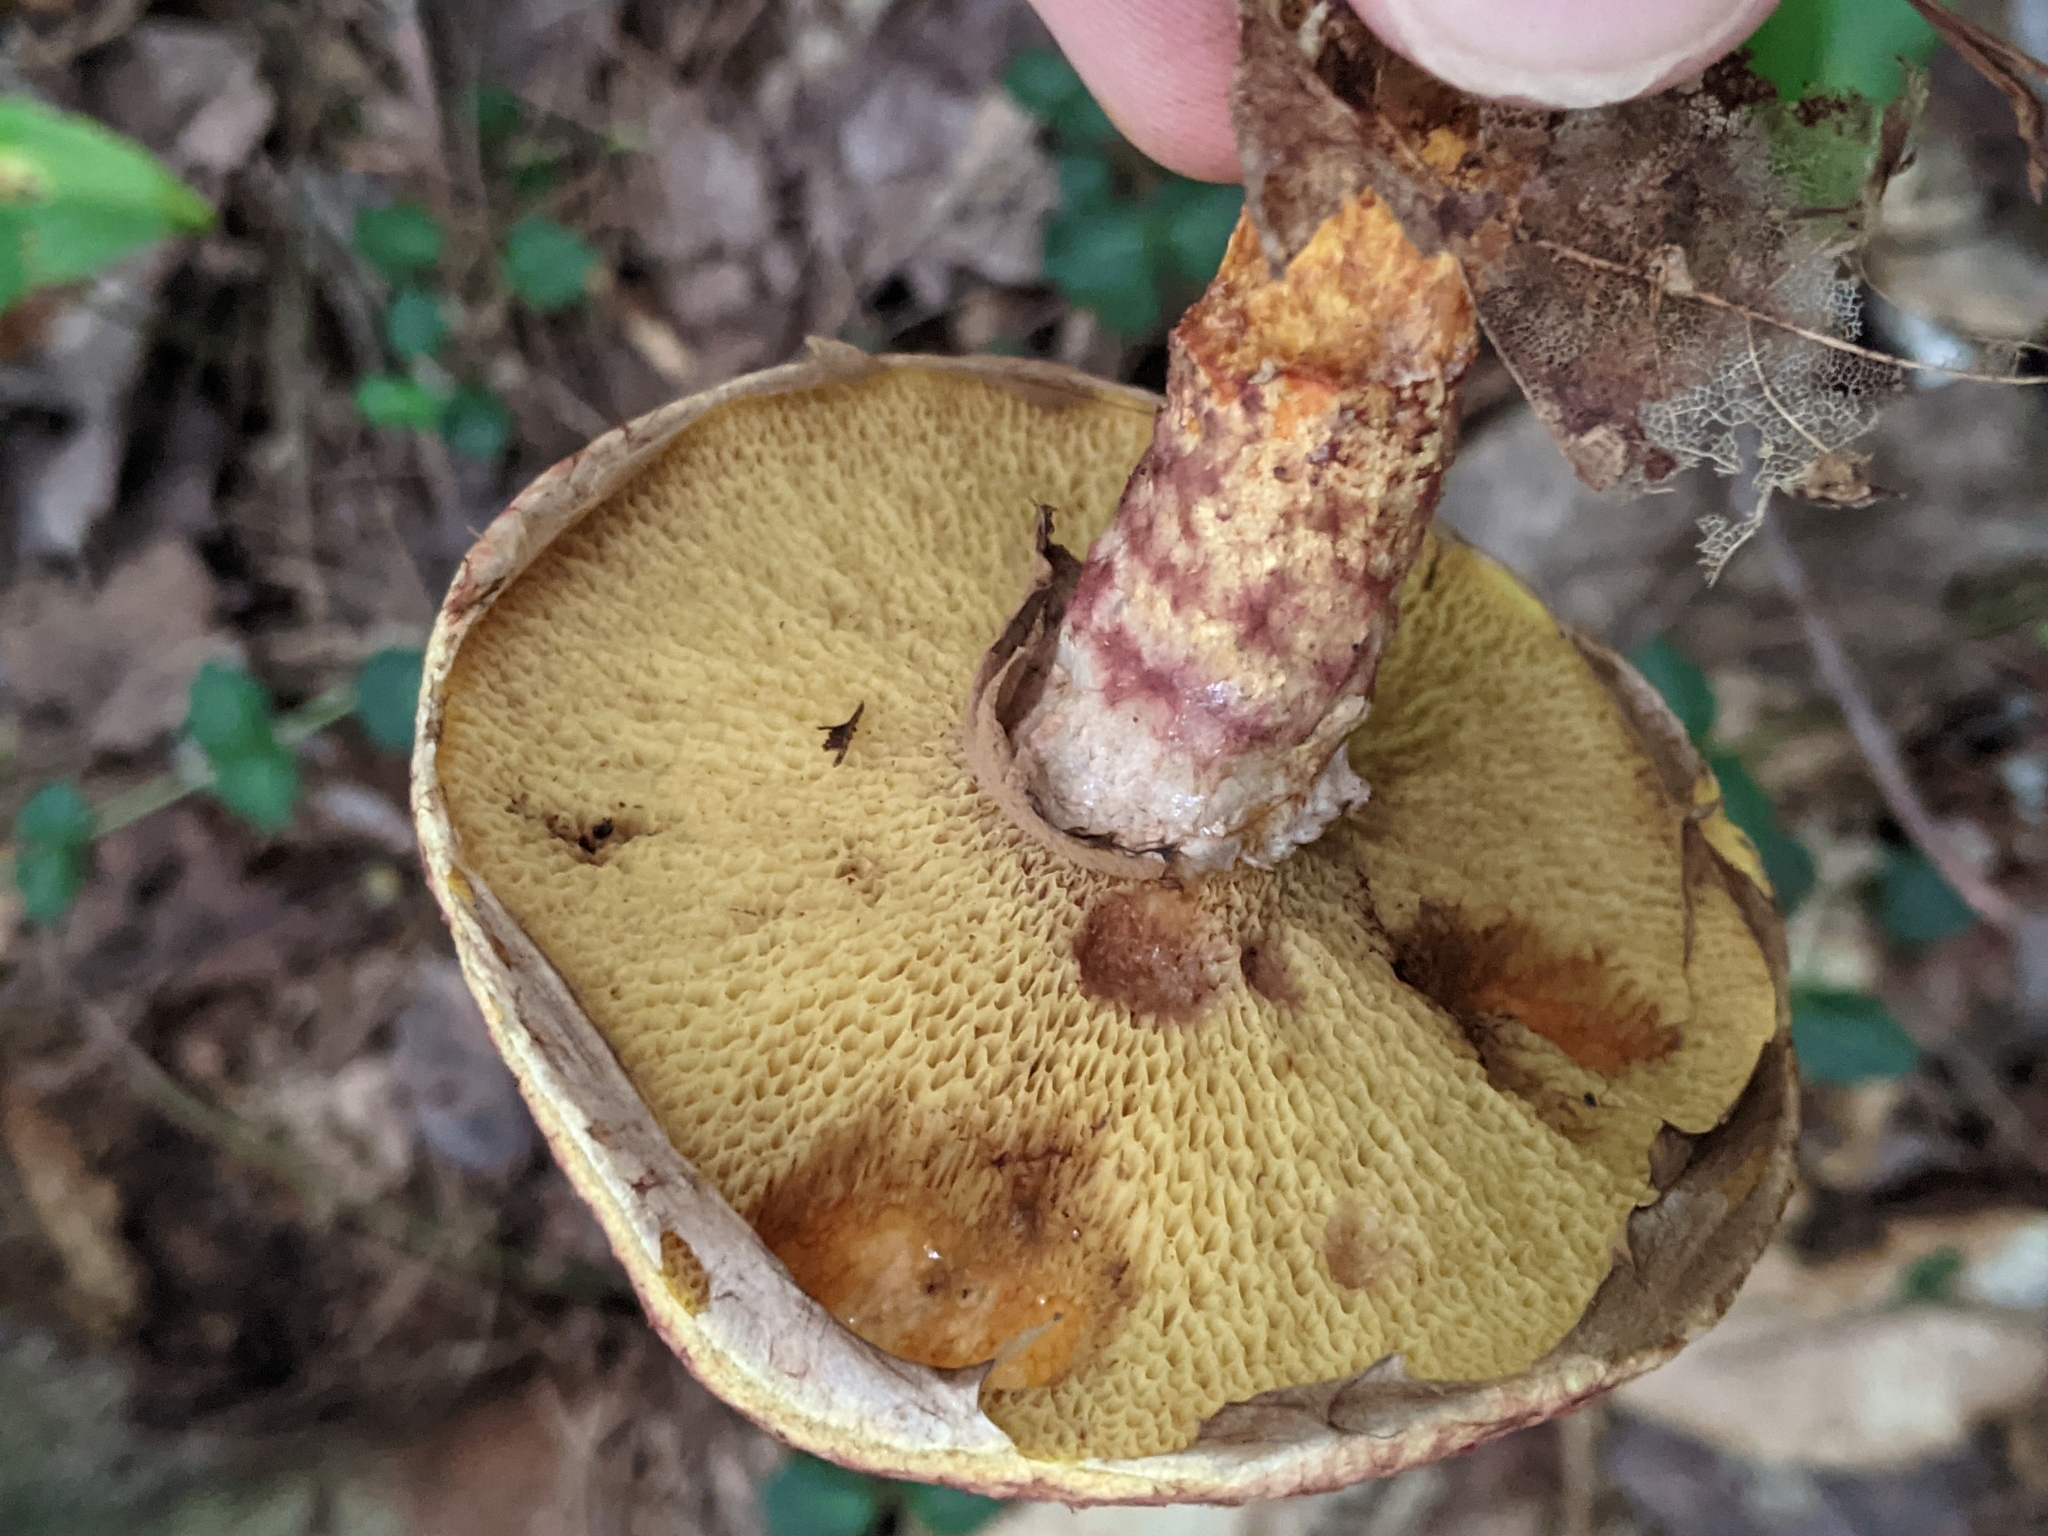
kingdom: Fungi
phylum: Basidiomycota
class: Agaricomycetes
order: Boletales
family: Suillaceae
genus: Suillus
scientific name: Suillus spraguei
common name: Painted suillus
